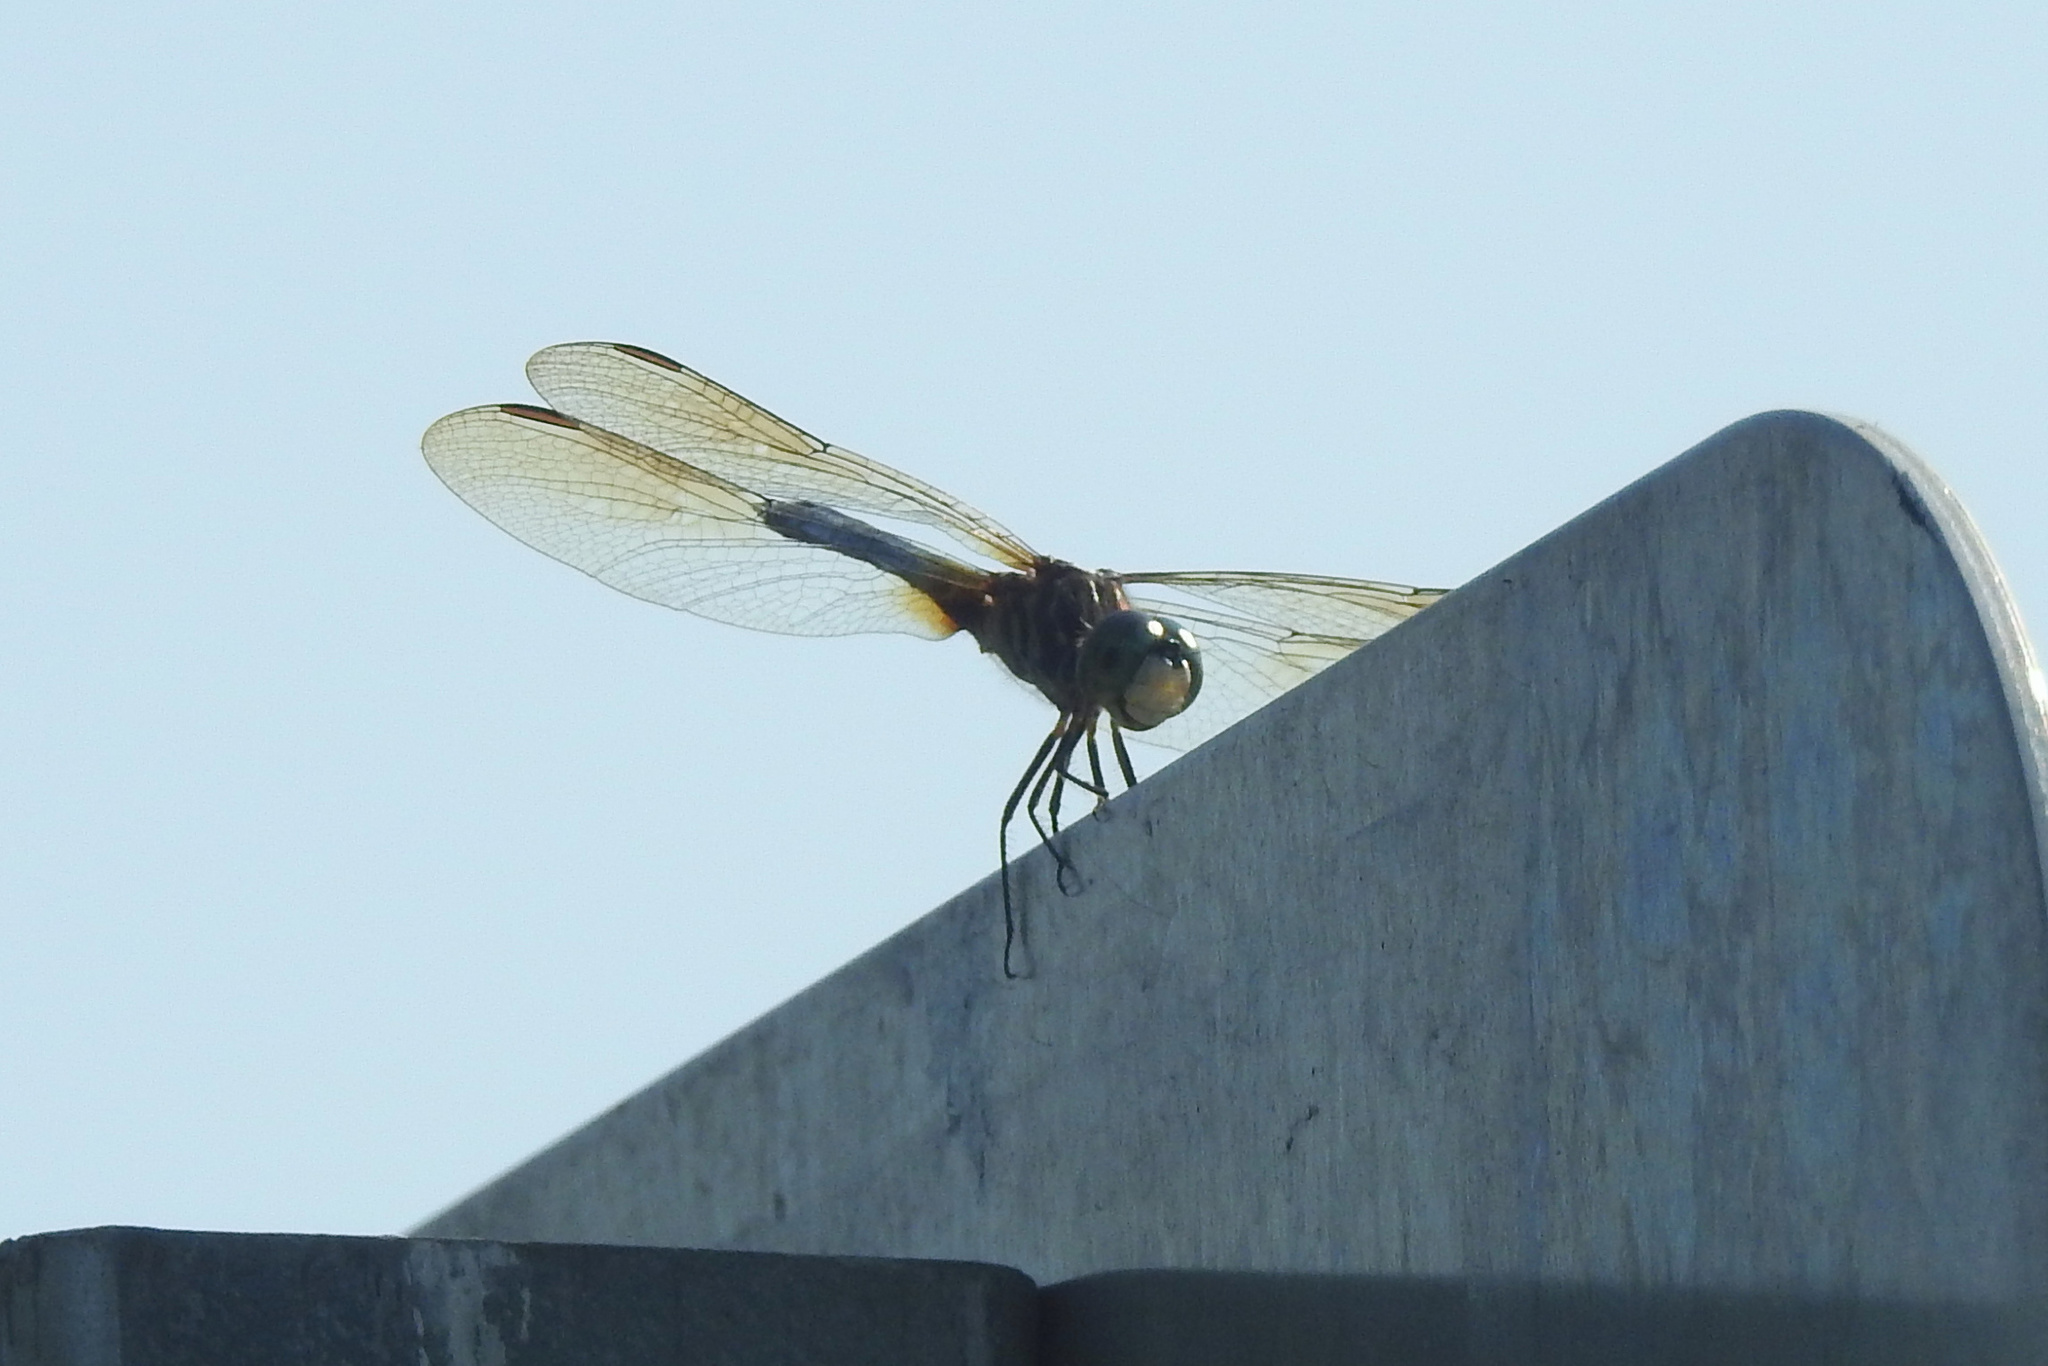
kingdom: Animalia
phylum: Arthropoda
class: Insecta
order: Odonata
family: Libellulidae
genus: Pachydiplax
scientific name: Pachydiplax longipennis
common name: Blue dasher
